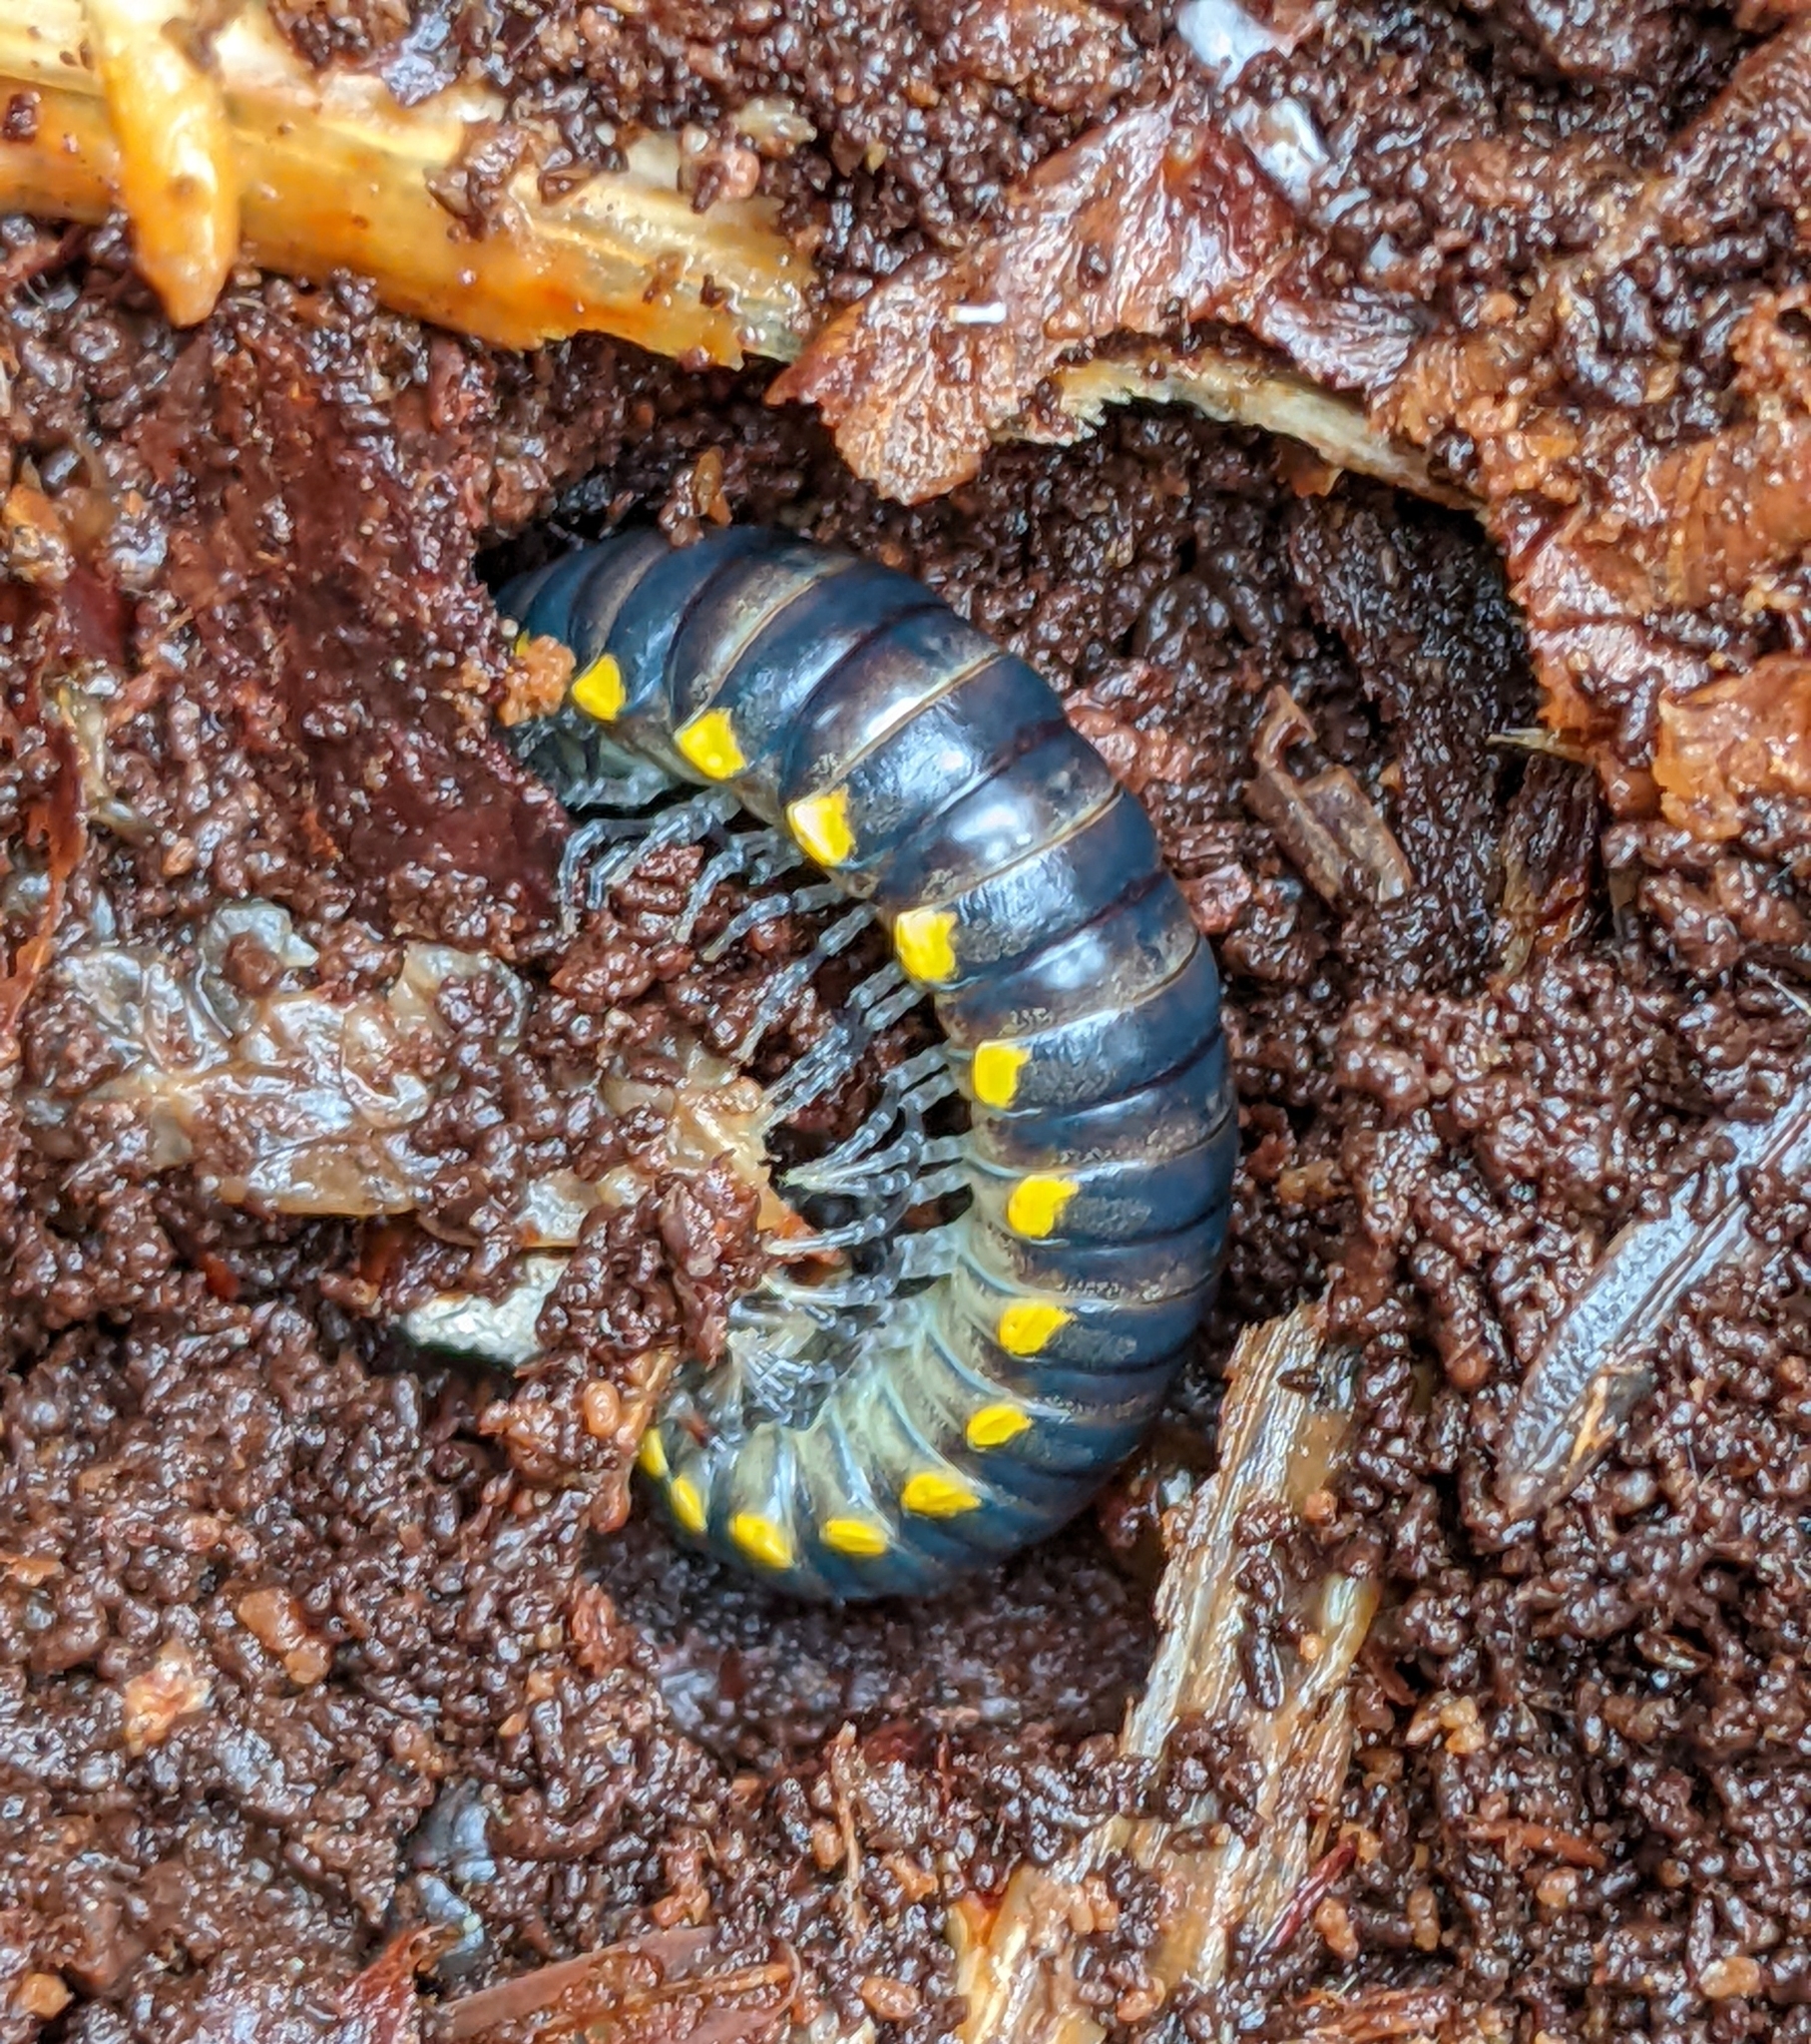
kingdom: Animalia
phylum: Arthropoda
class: Diplopoda
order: Polydesmida
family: Xystodesmidae
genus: Harpaphe
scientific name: Harpaphe haydeniana
